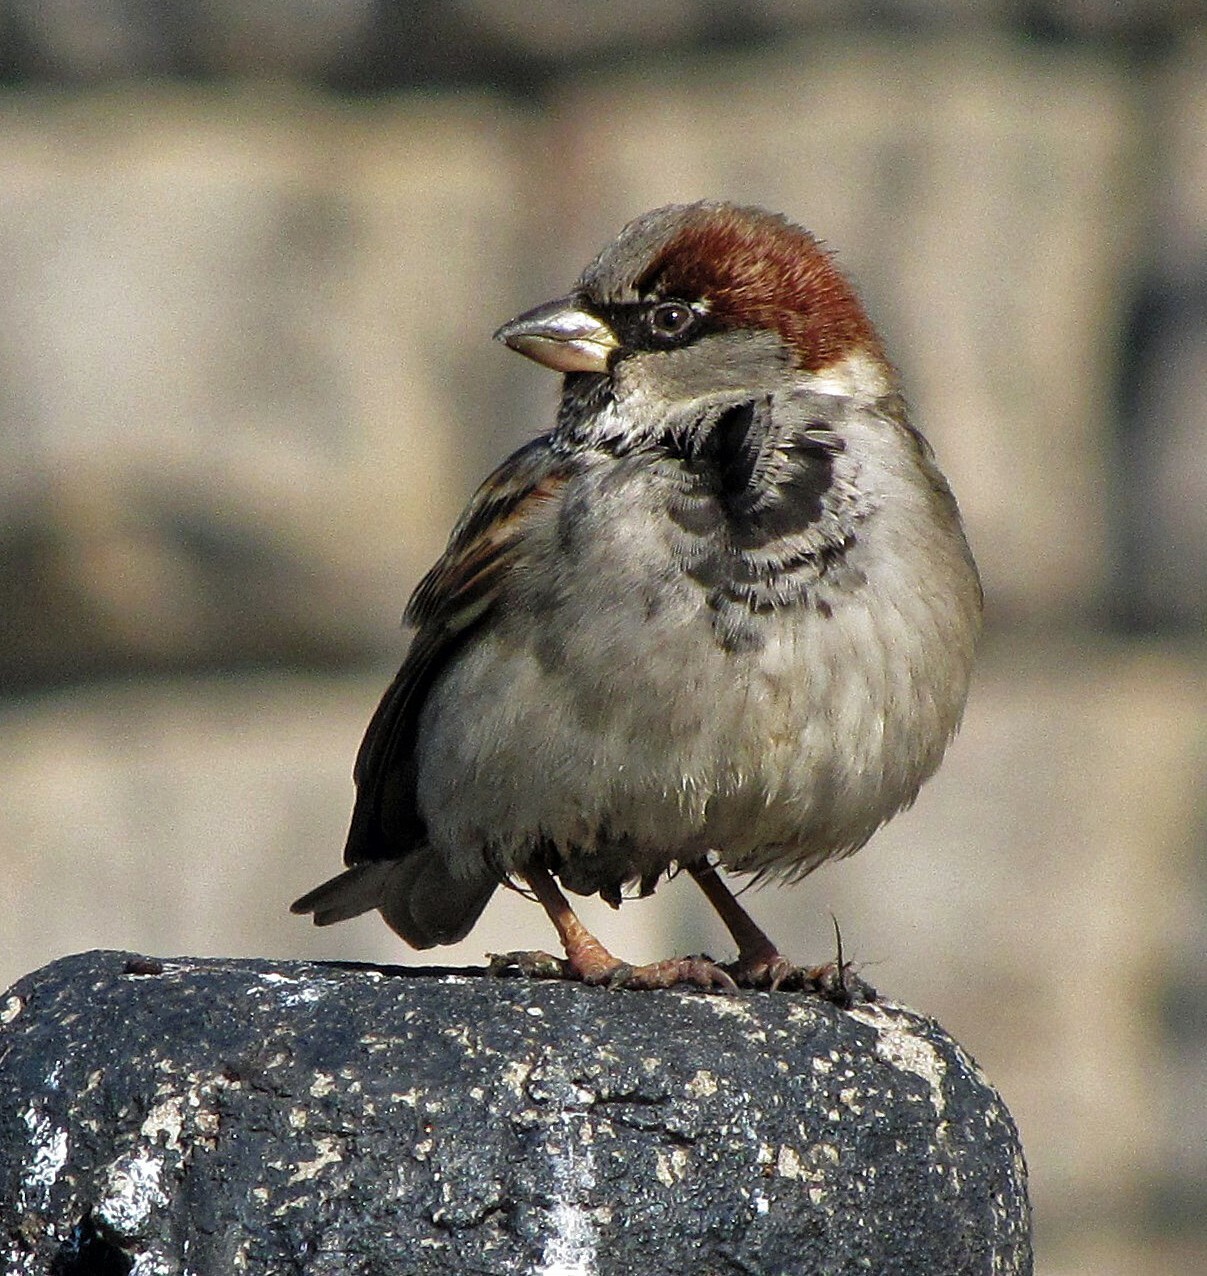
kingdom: Animalia
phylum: Chordata
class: Aves
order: Passeriformes
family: Passeridae
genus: Passer
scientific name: Passer domesticus
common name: House sparrow
